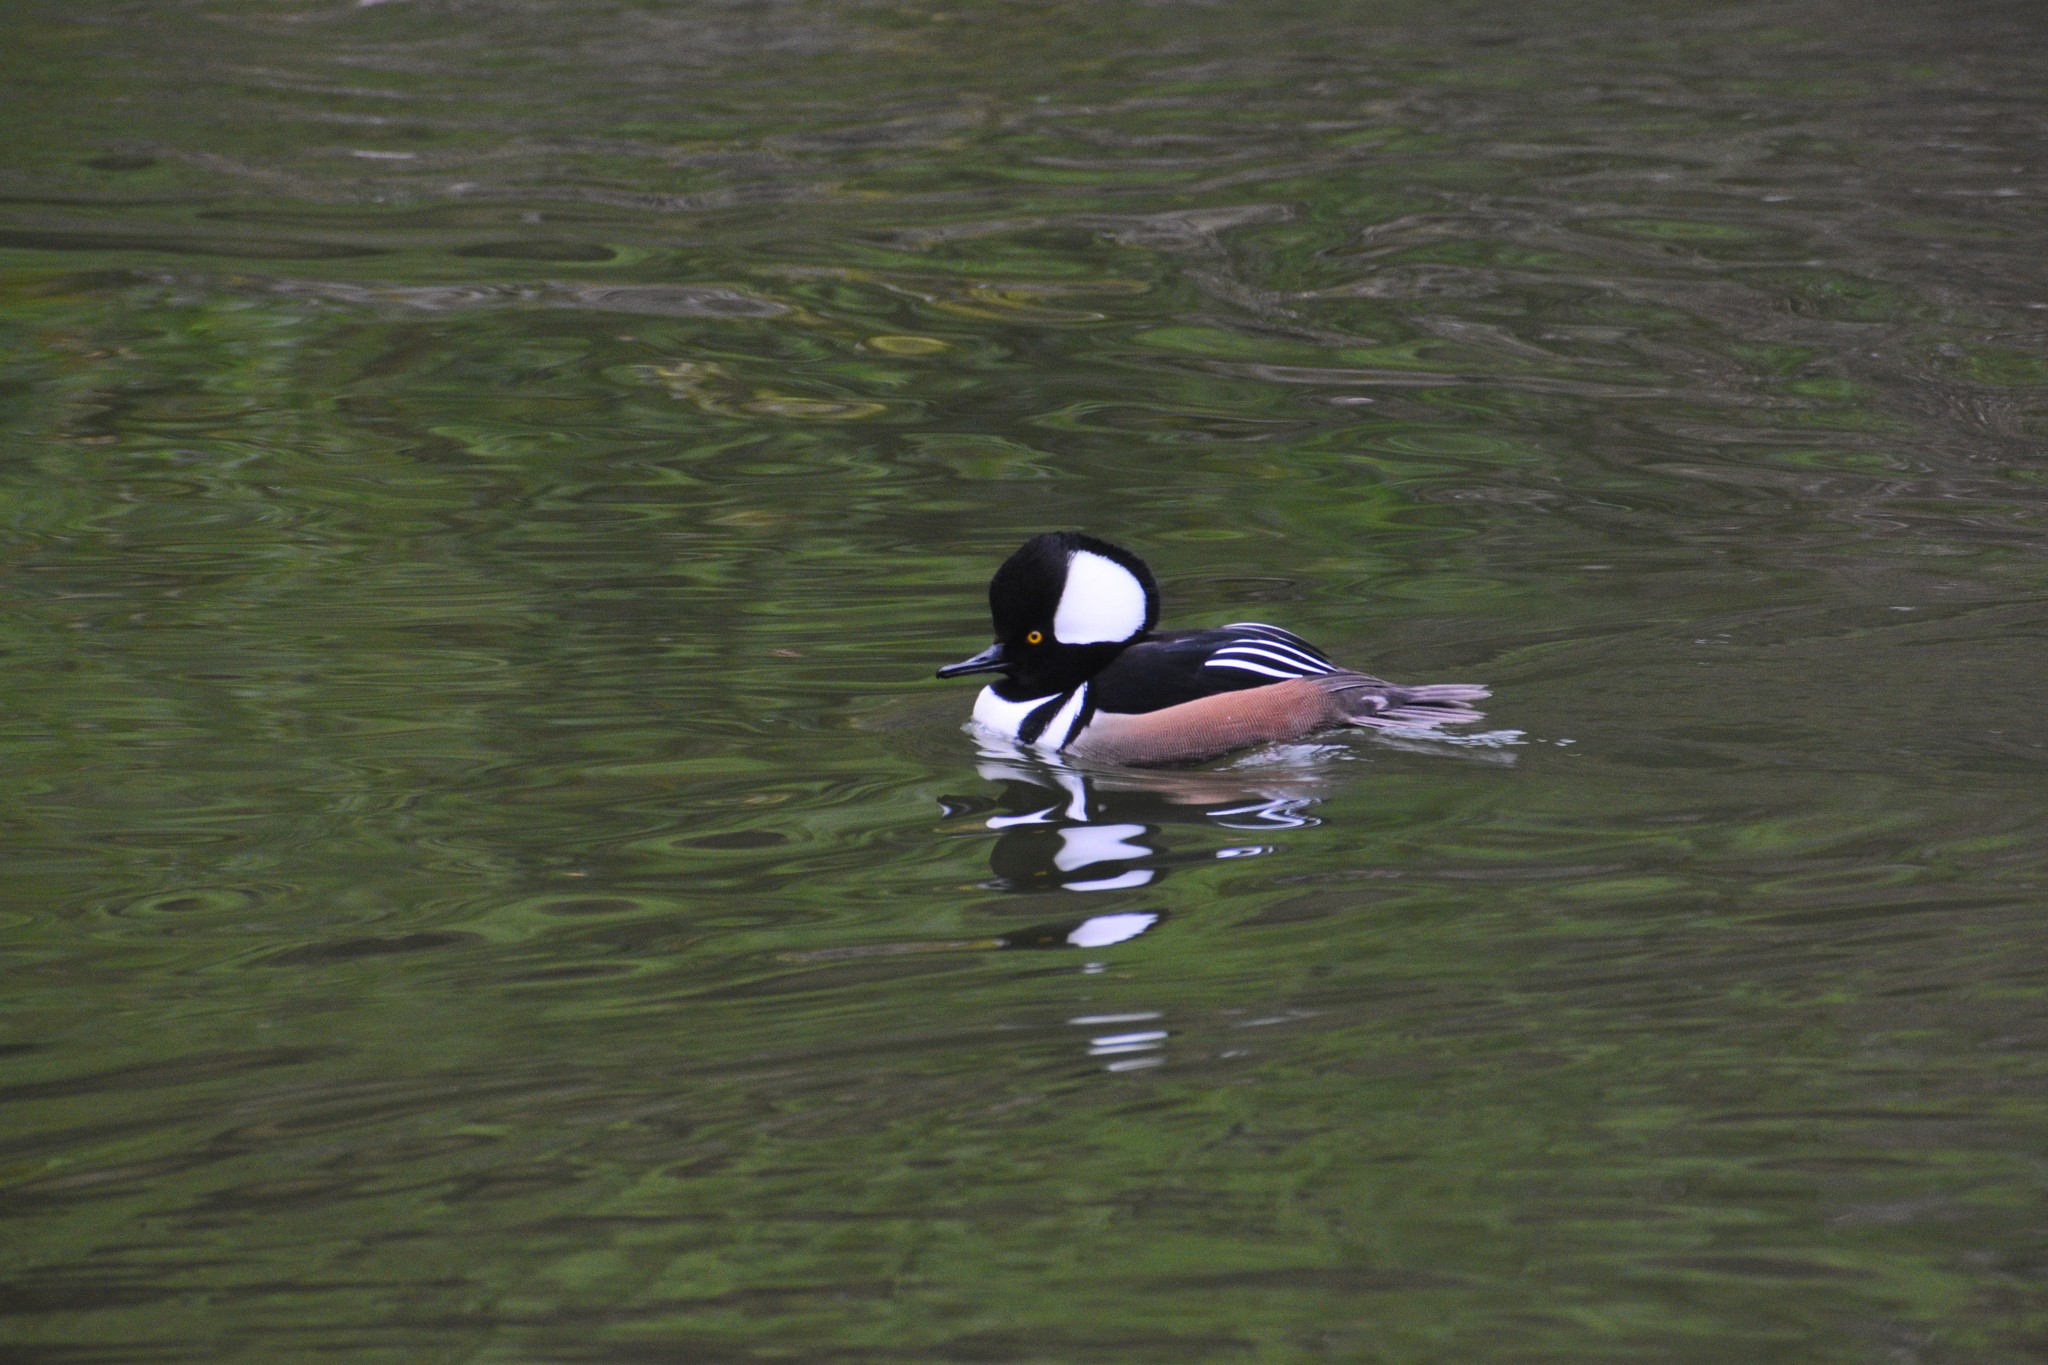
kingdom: Animalia
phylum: Chordata
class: Aves
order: Anseriformes
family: Anatidae
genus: Lophodytes
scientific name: Lophodytes cucullatus
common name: Hooded merganser
